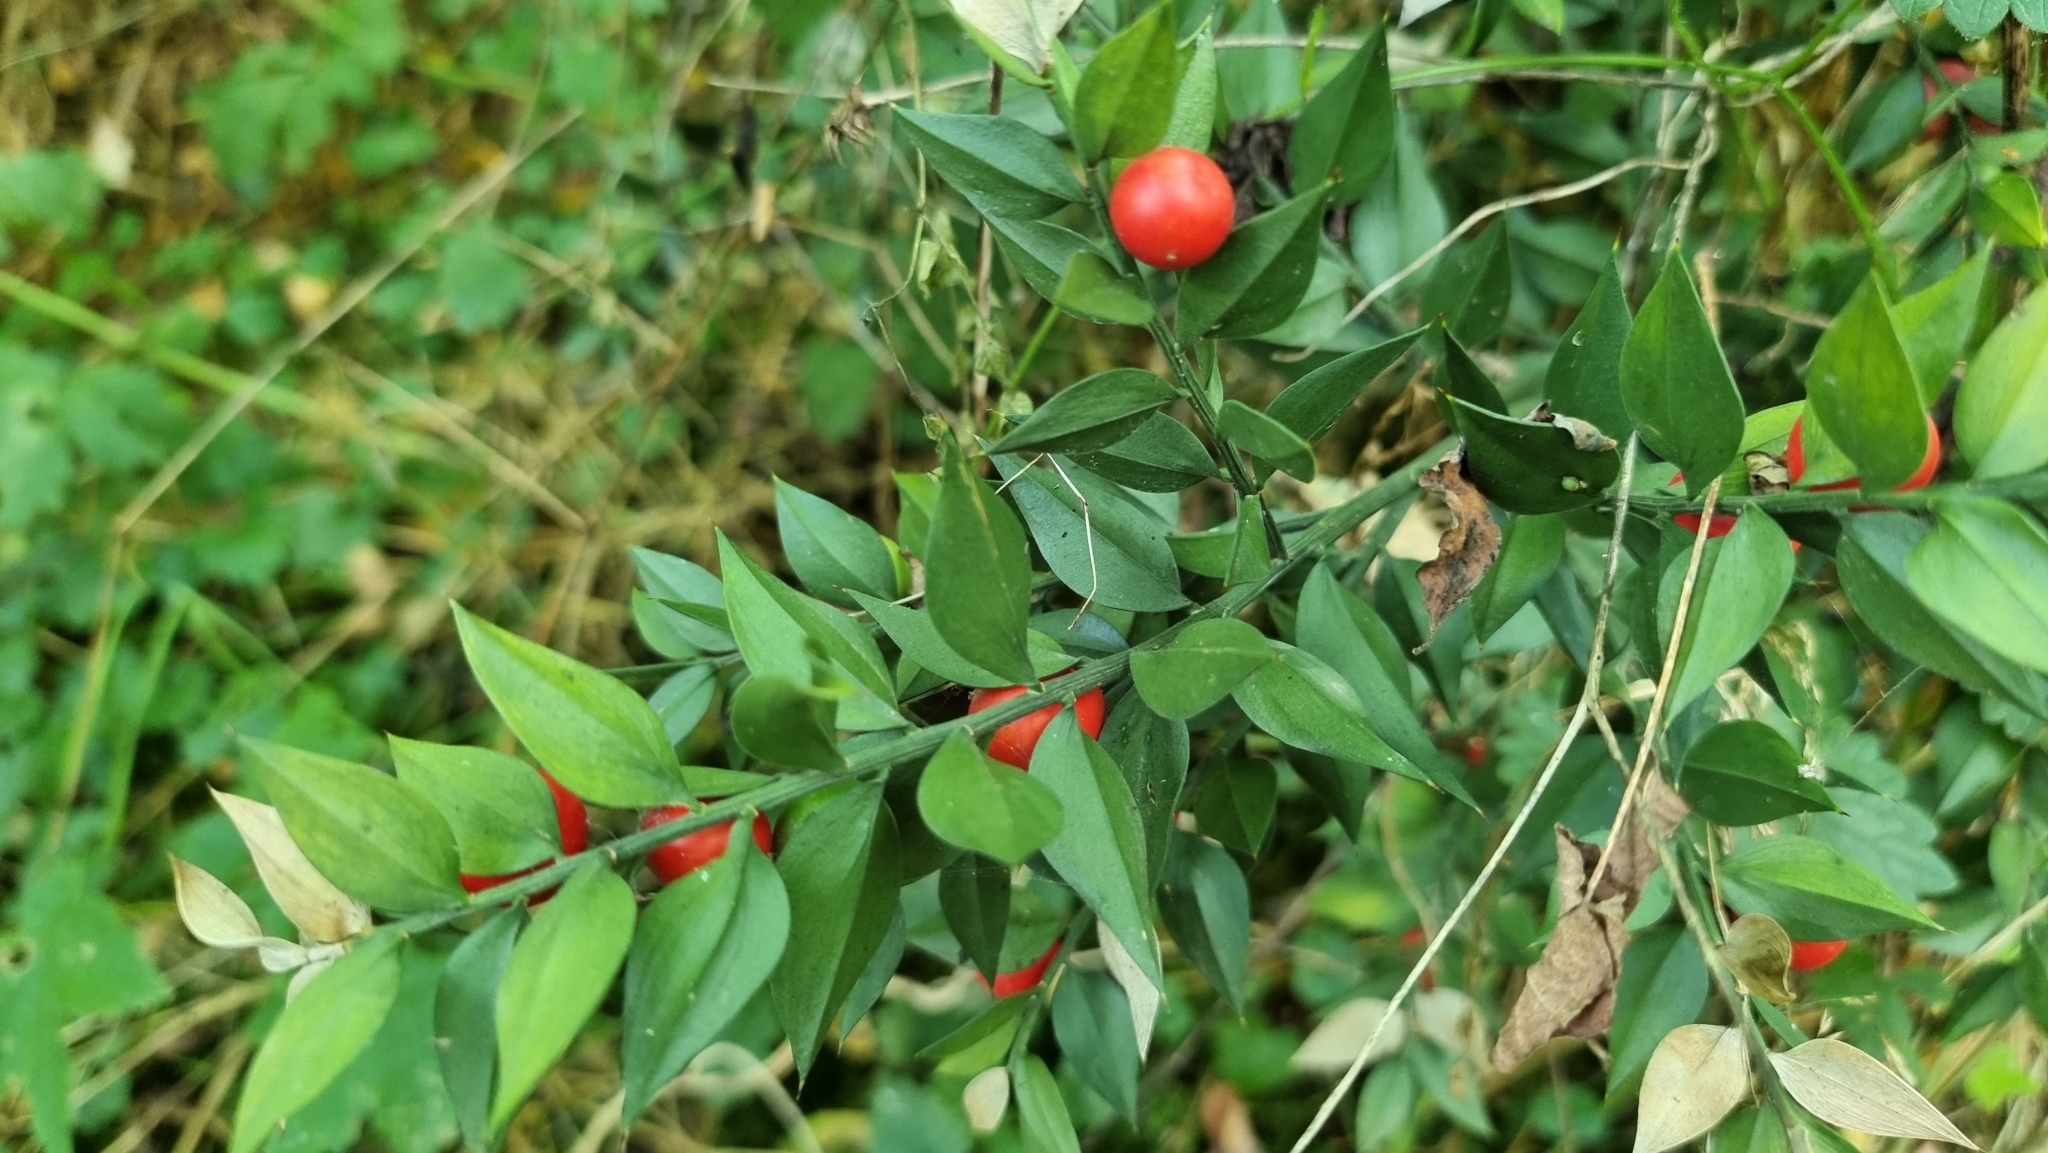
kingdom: Plantae
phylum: Tracheophyta
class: Liliopsida
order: Asparagales
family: Asparagaceae
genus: Ruscus
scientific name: Ruscus aculeatus
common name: Butcher's-broom
